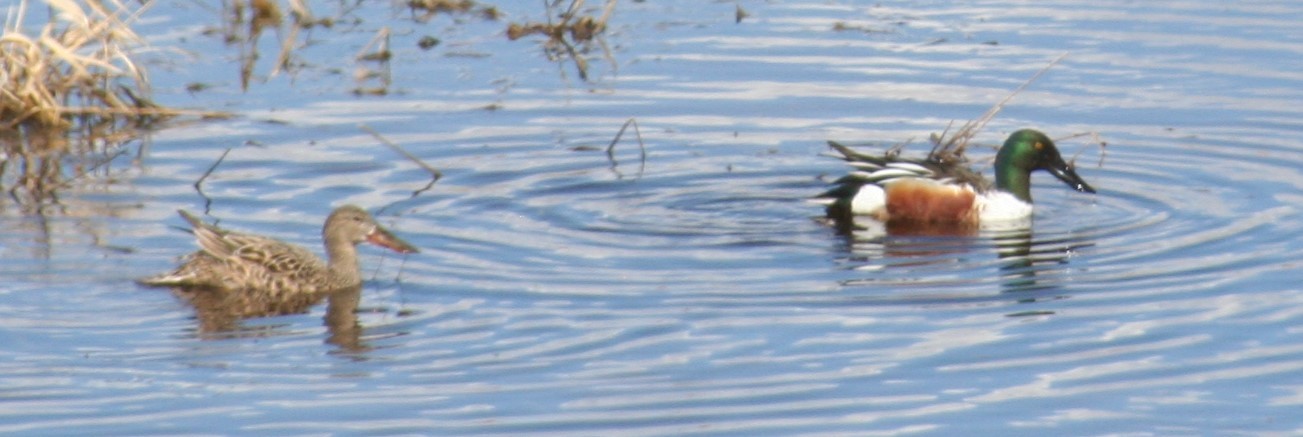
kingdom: Animalia
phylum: Chordata
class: Aves
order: Anseriformes
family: Anatidae
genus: Spatula
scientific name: Spatula clypeata
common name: Northern shoveler
